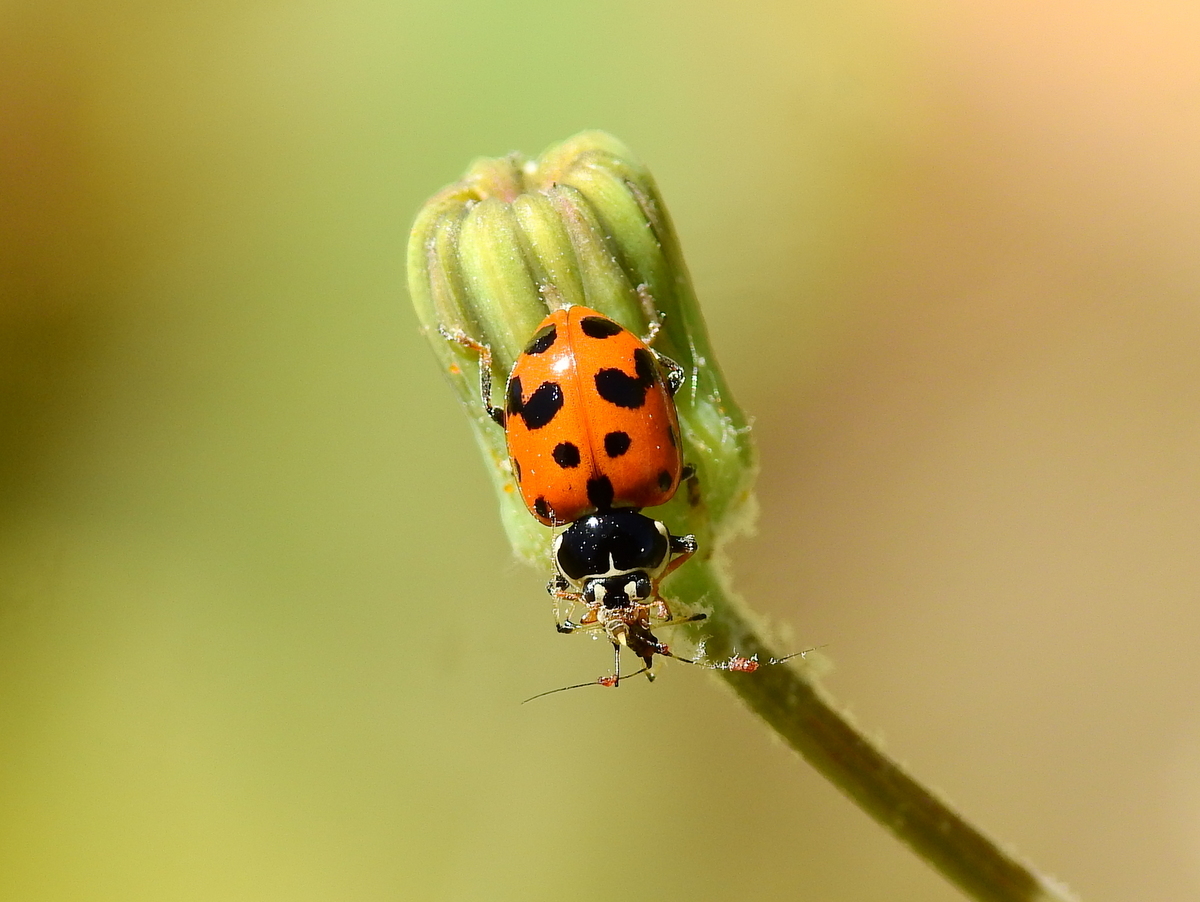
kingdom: Animalia
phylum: Arthropoda
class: Insecta
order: Coleoptera
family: Coccinellidae
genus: Hippodamia
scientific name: Hippodamia variegata
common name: Ladybird beetle
